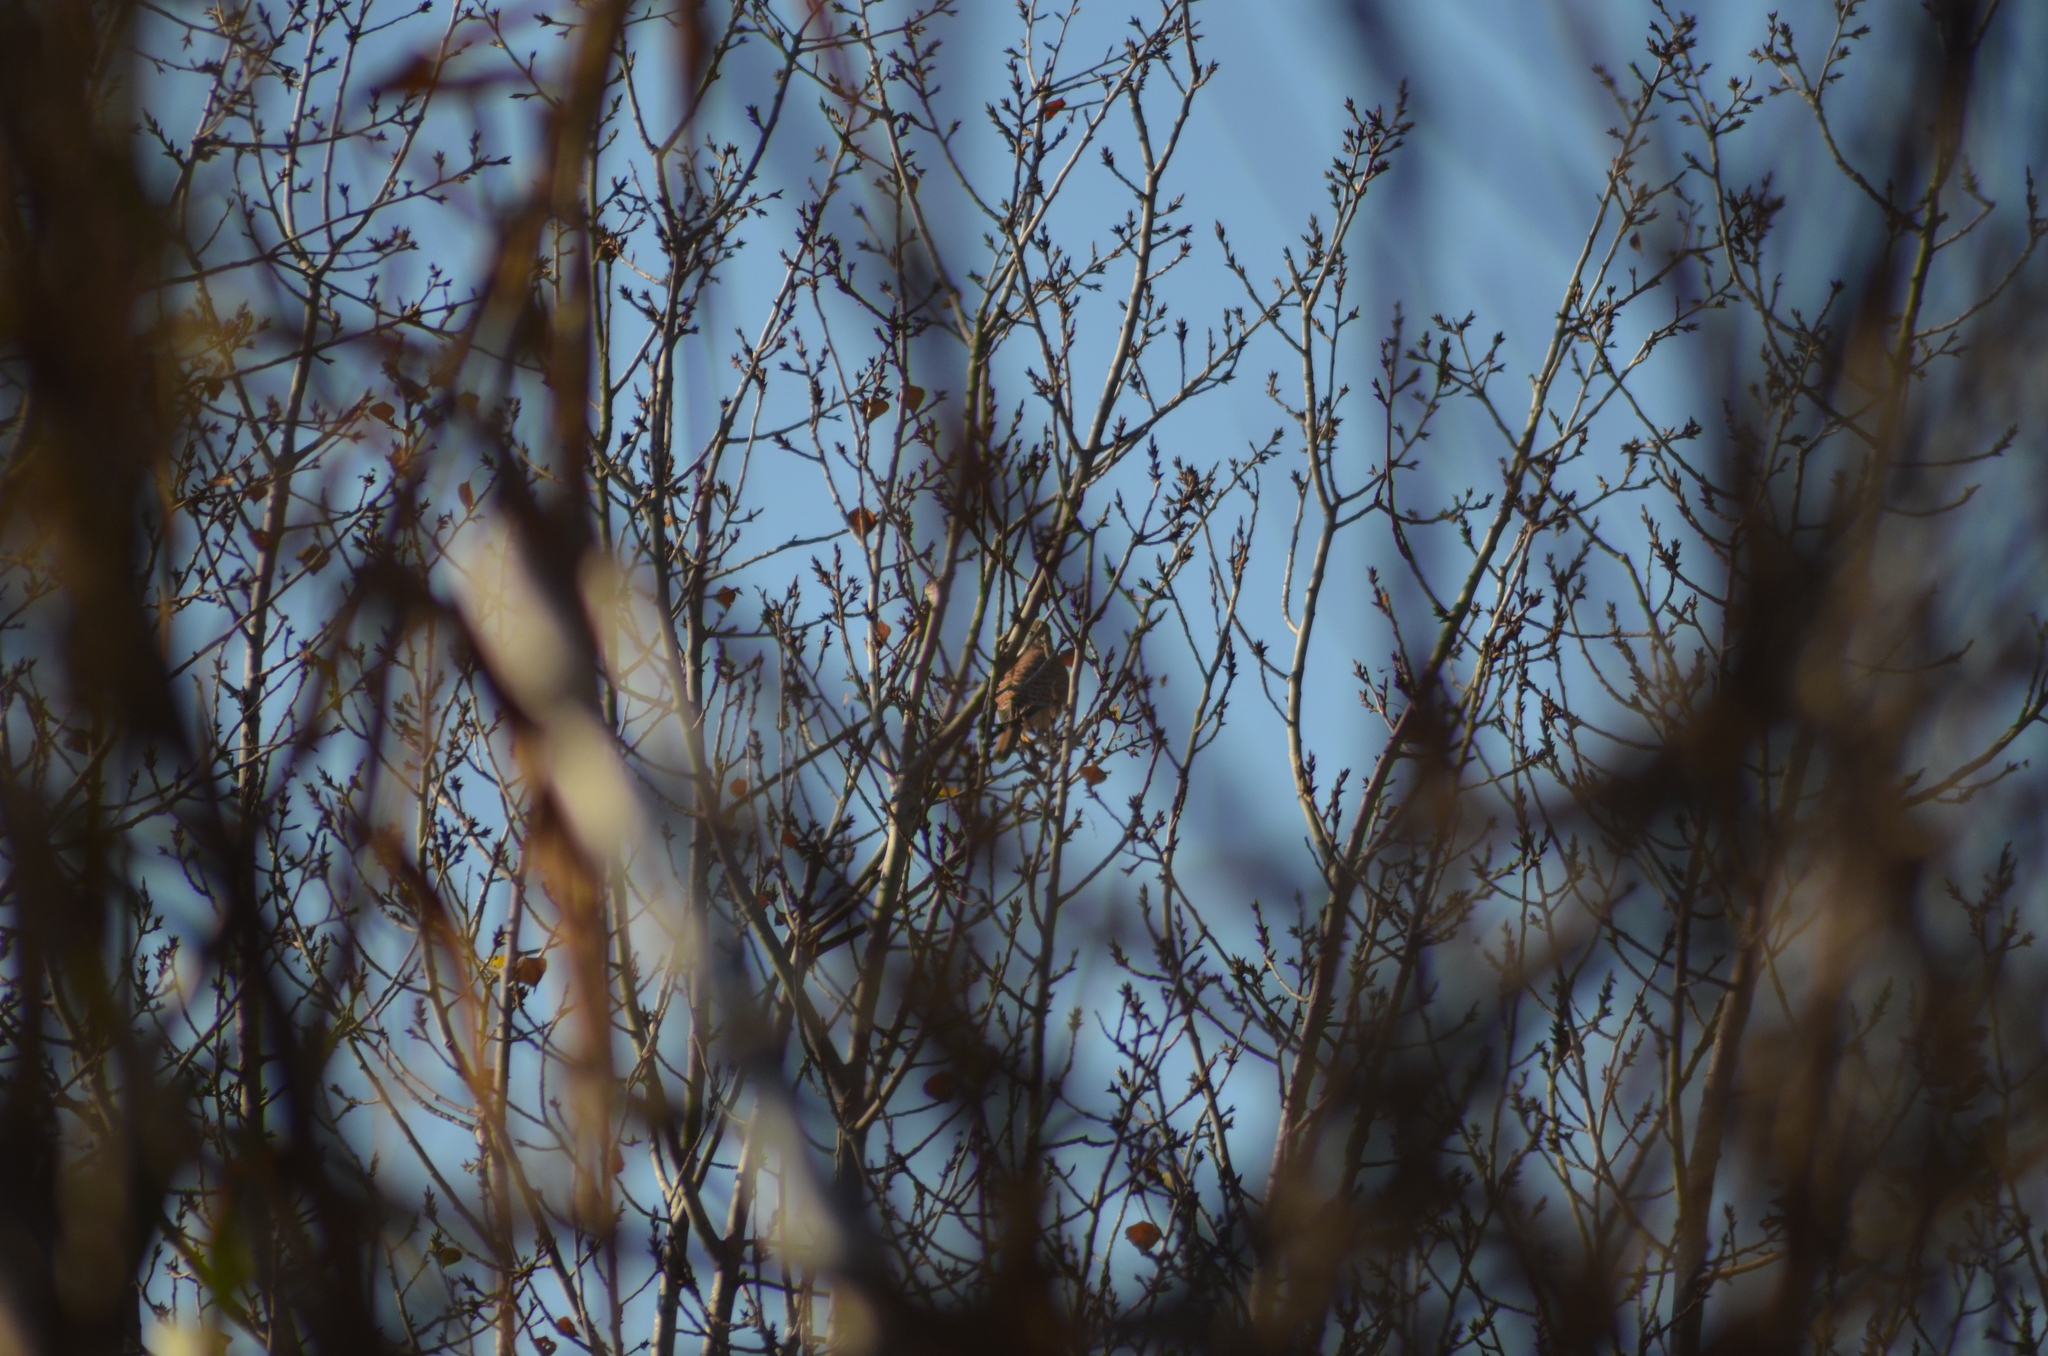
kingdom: Animalia
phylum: Chordata
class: Aves
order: Falconiformes
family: Falconidae
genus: Falco
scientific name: Falco tinnunculus
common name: Common kestrel
